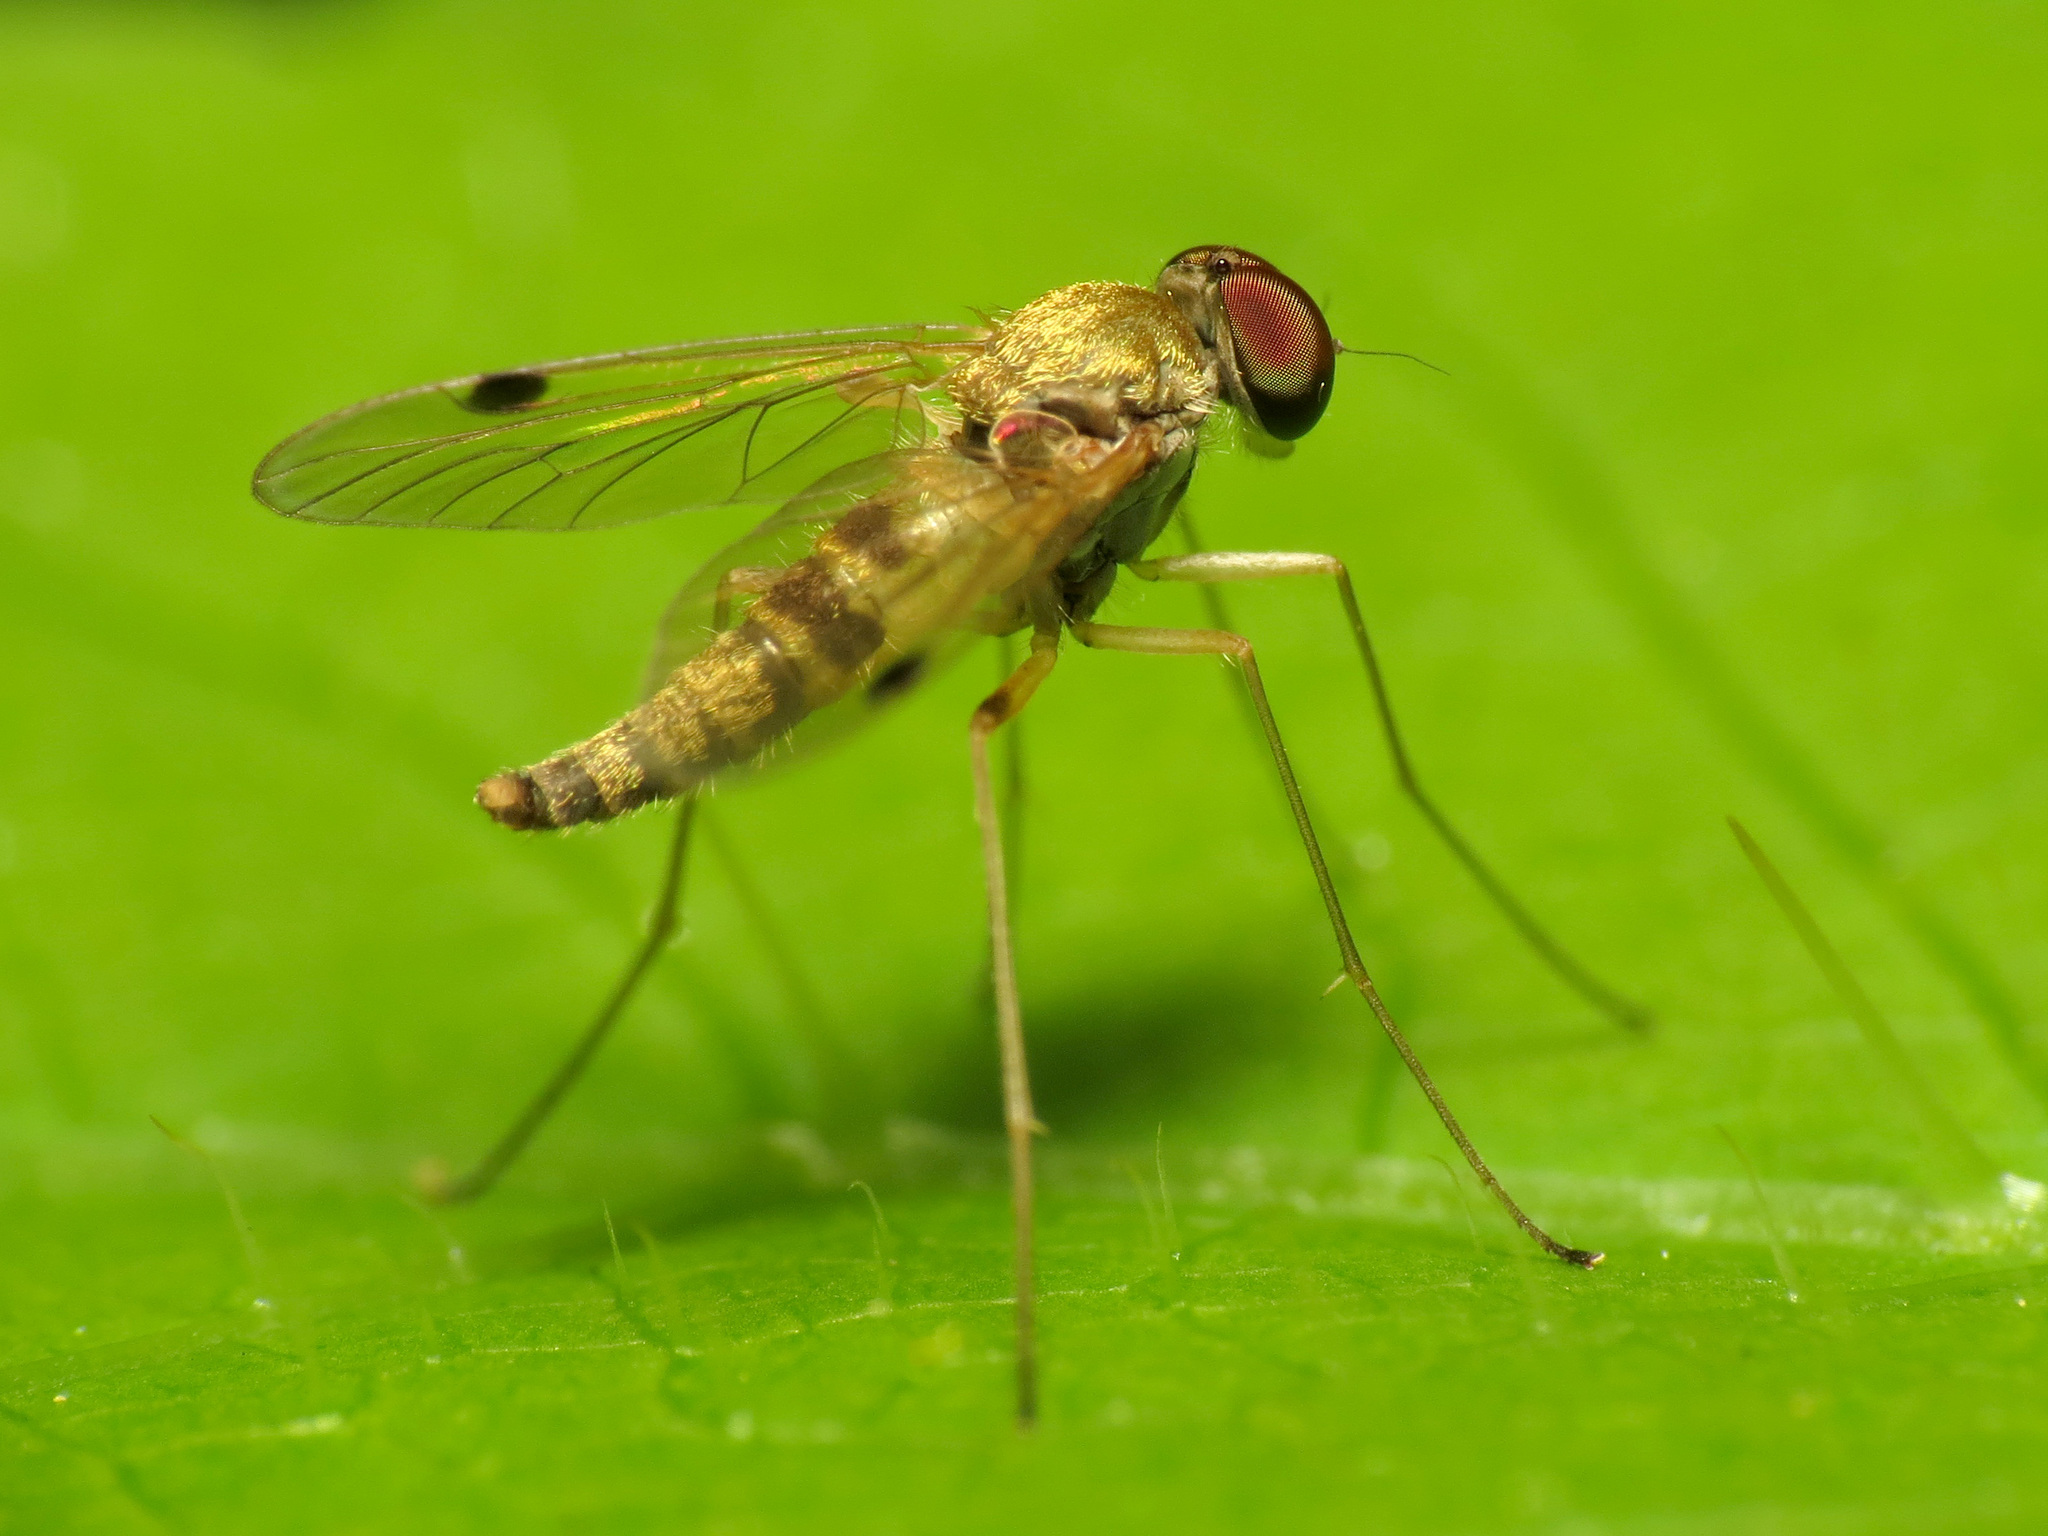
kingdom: Animalia
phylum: Arthropoda
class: Insecta
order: Diptera
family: Rhagionidae
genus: Chrysopilus
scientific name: Chrysopilus modestus
